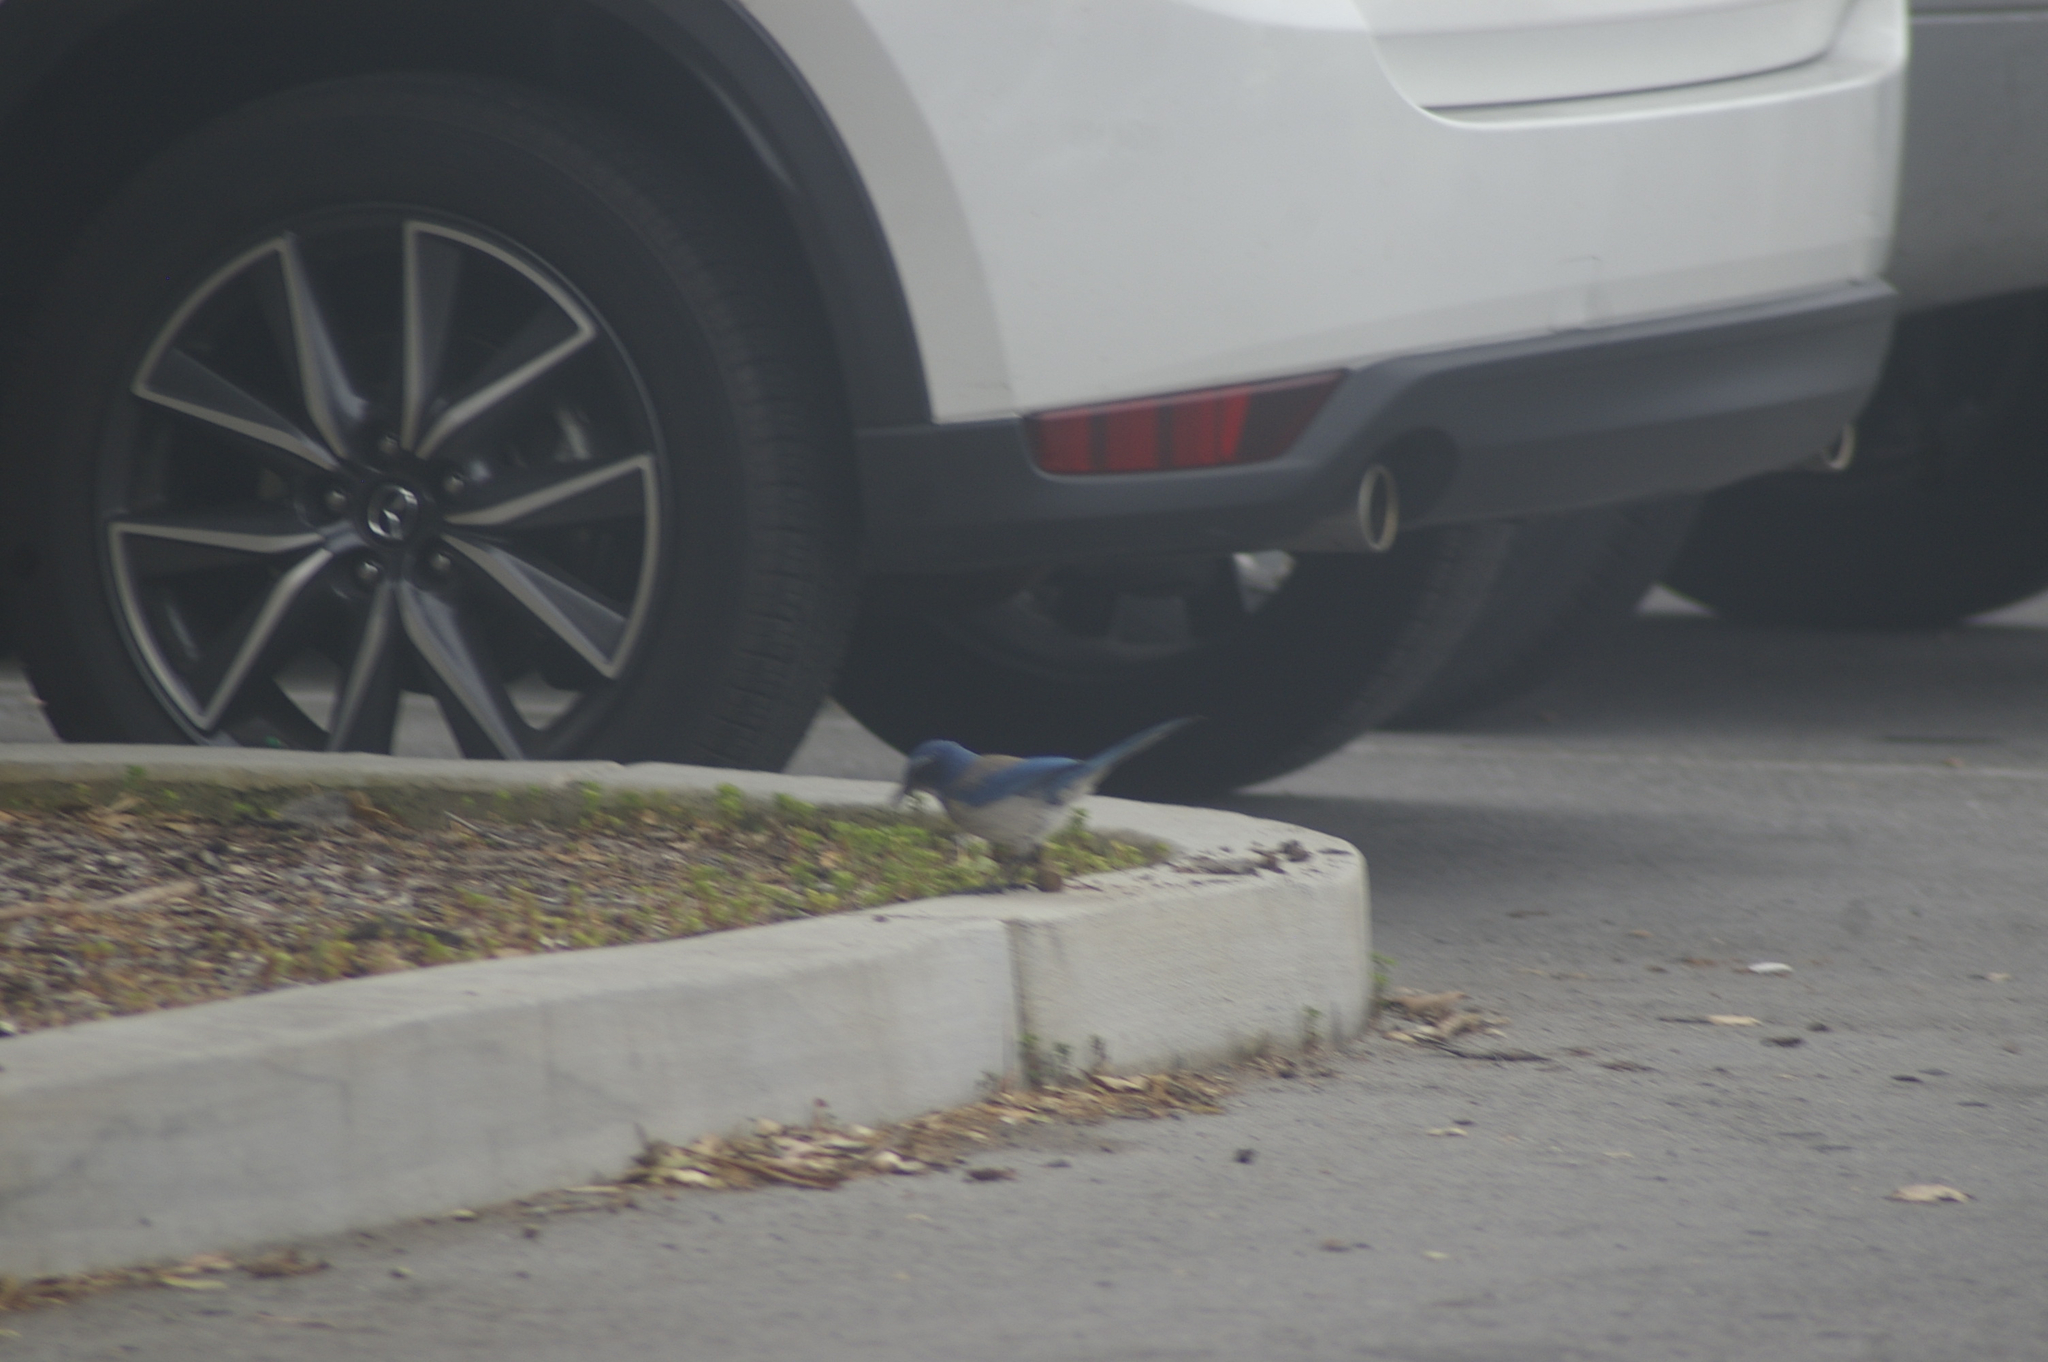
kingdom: Animalia
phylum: Chordata
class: Aves
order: Passeriformes
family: Corvidae
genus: Aphelocoma
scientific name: Aphelocoma californica
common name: California scrub-jay
